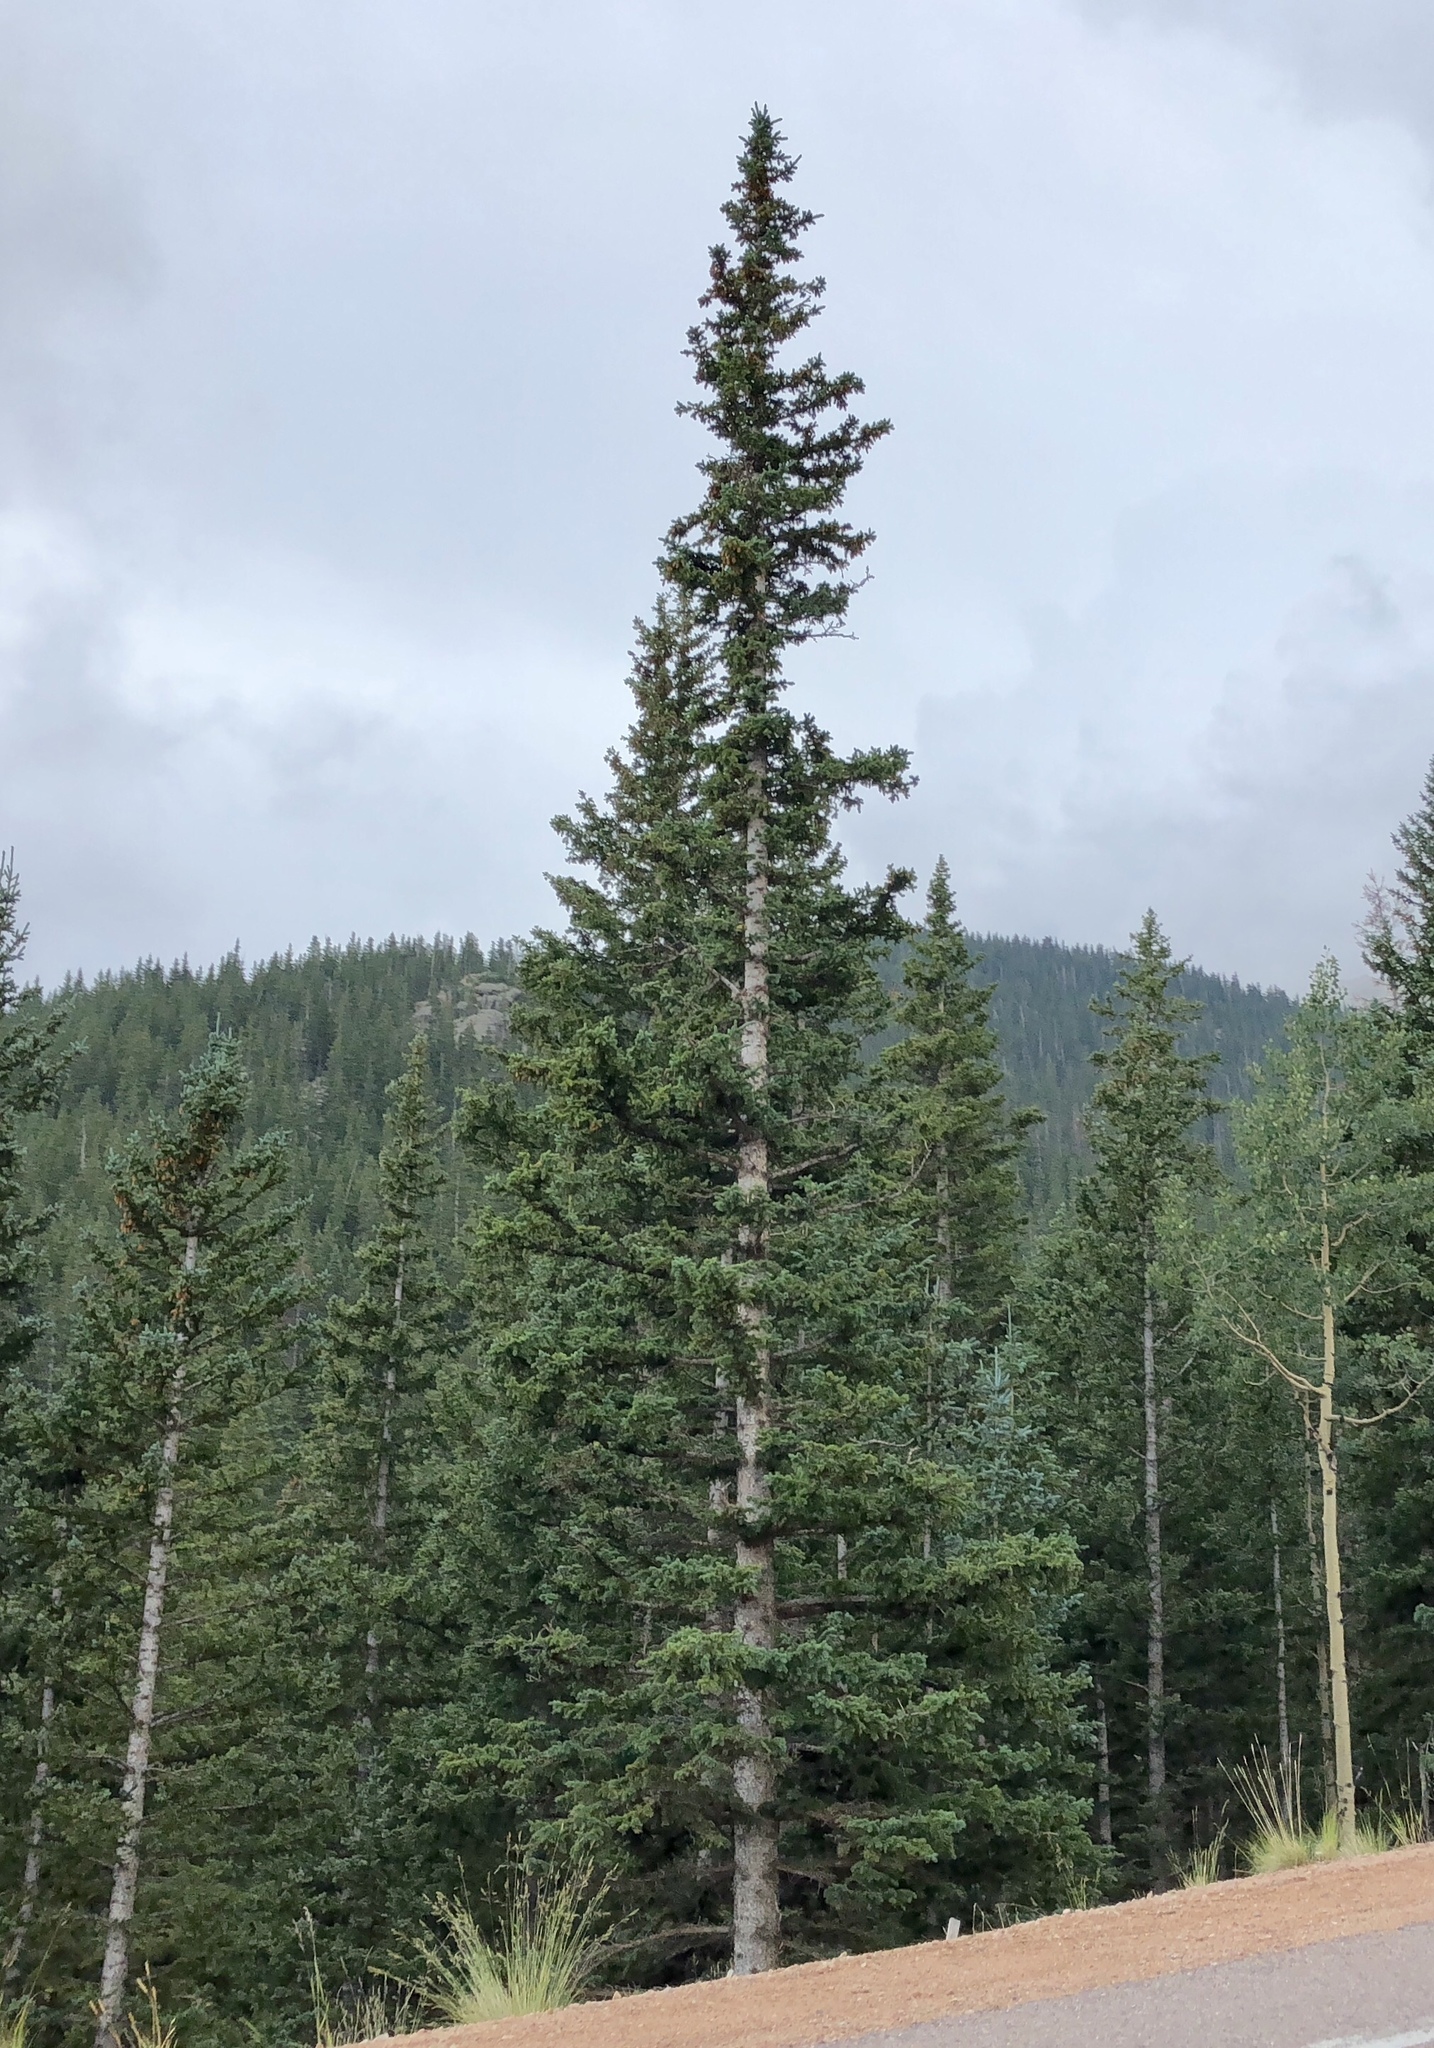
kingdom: Plantae
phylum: Tracheophyta
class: Pinopsida
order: Pinales
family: Pinaceae
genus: Abies
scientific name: Abies lasiocarpa
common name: Subalpine fir
